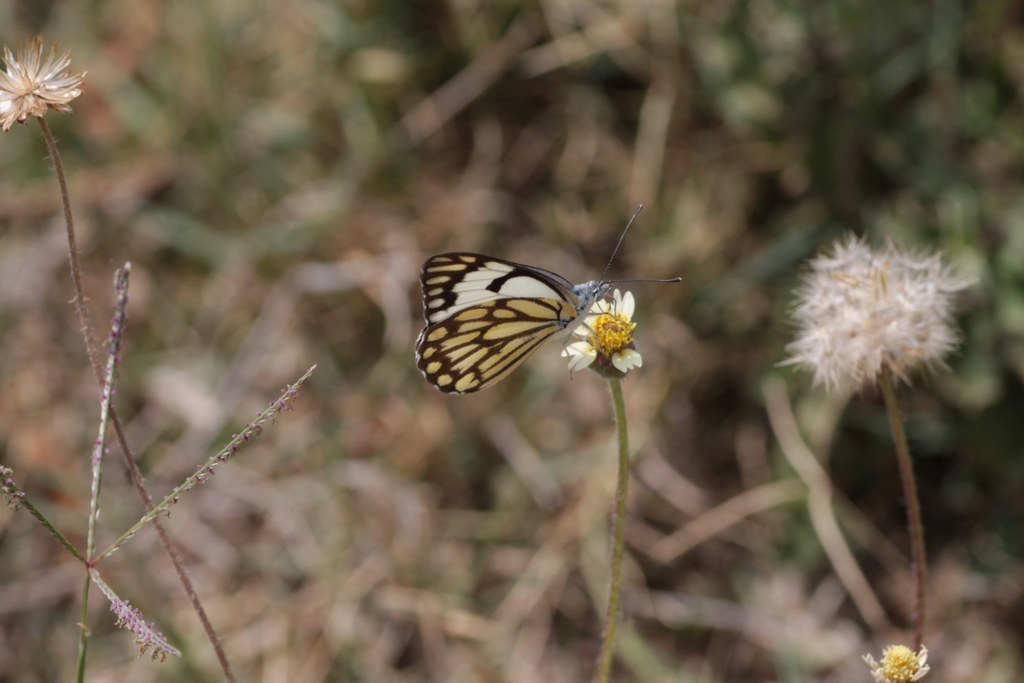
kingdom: Animalia
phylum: Arthropoda
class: Insecta
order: Lepidoptera
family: Pieridae
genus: Belenois
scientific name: Belenois aurota
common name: Brown-veined white
